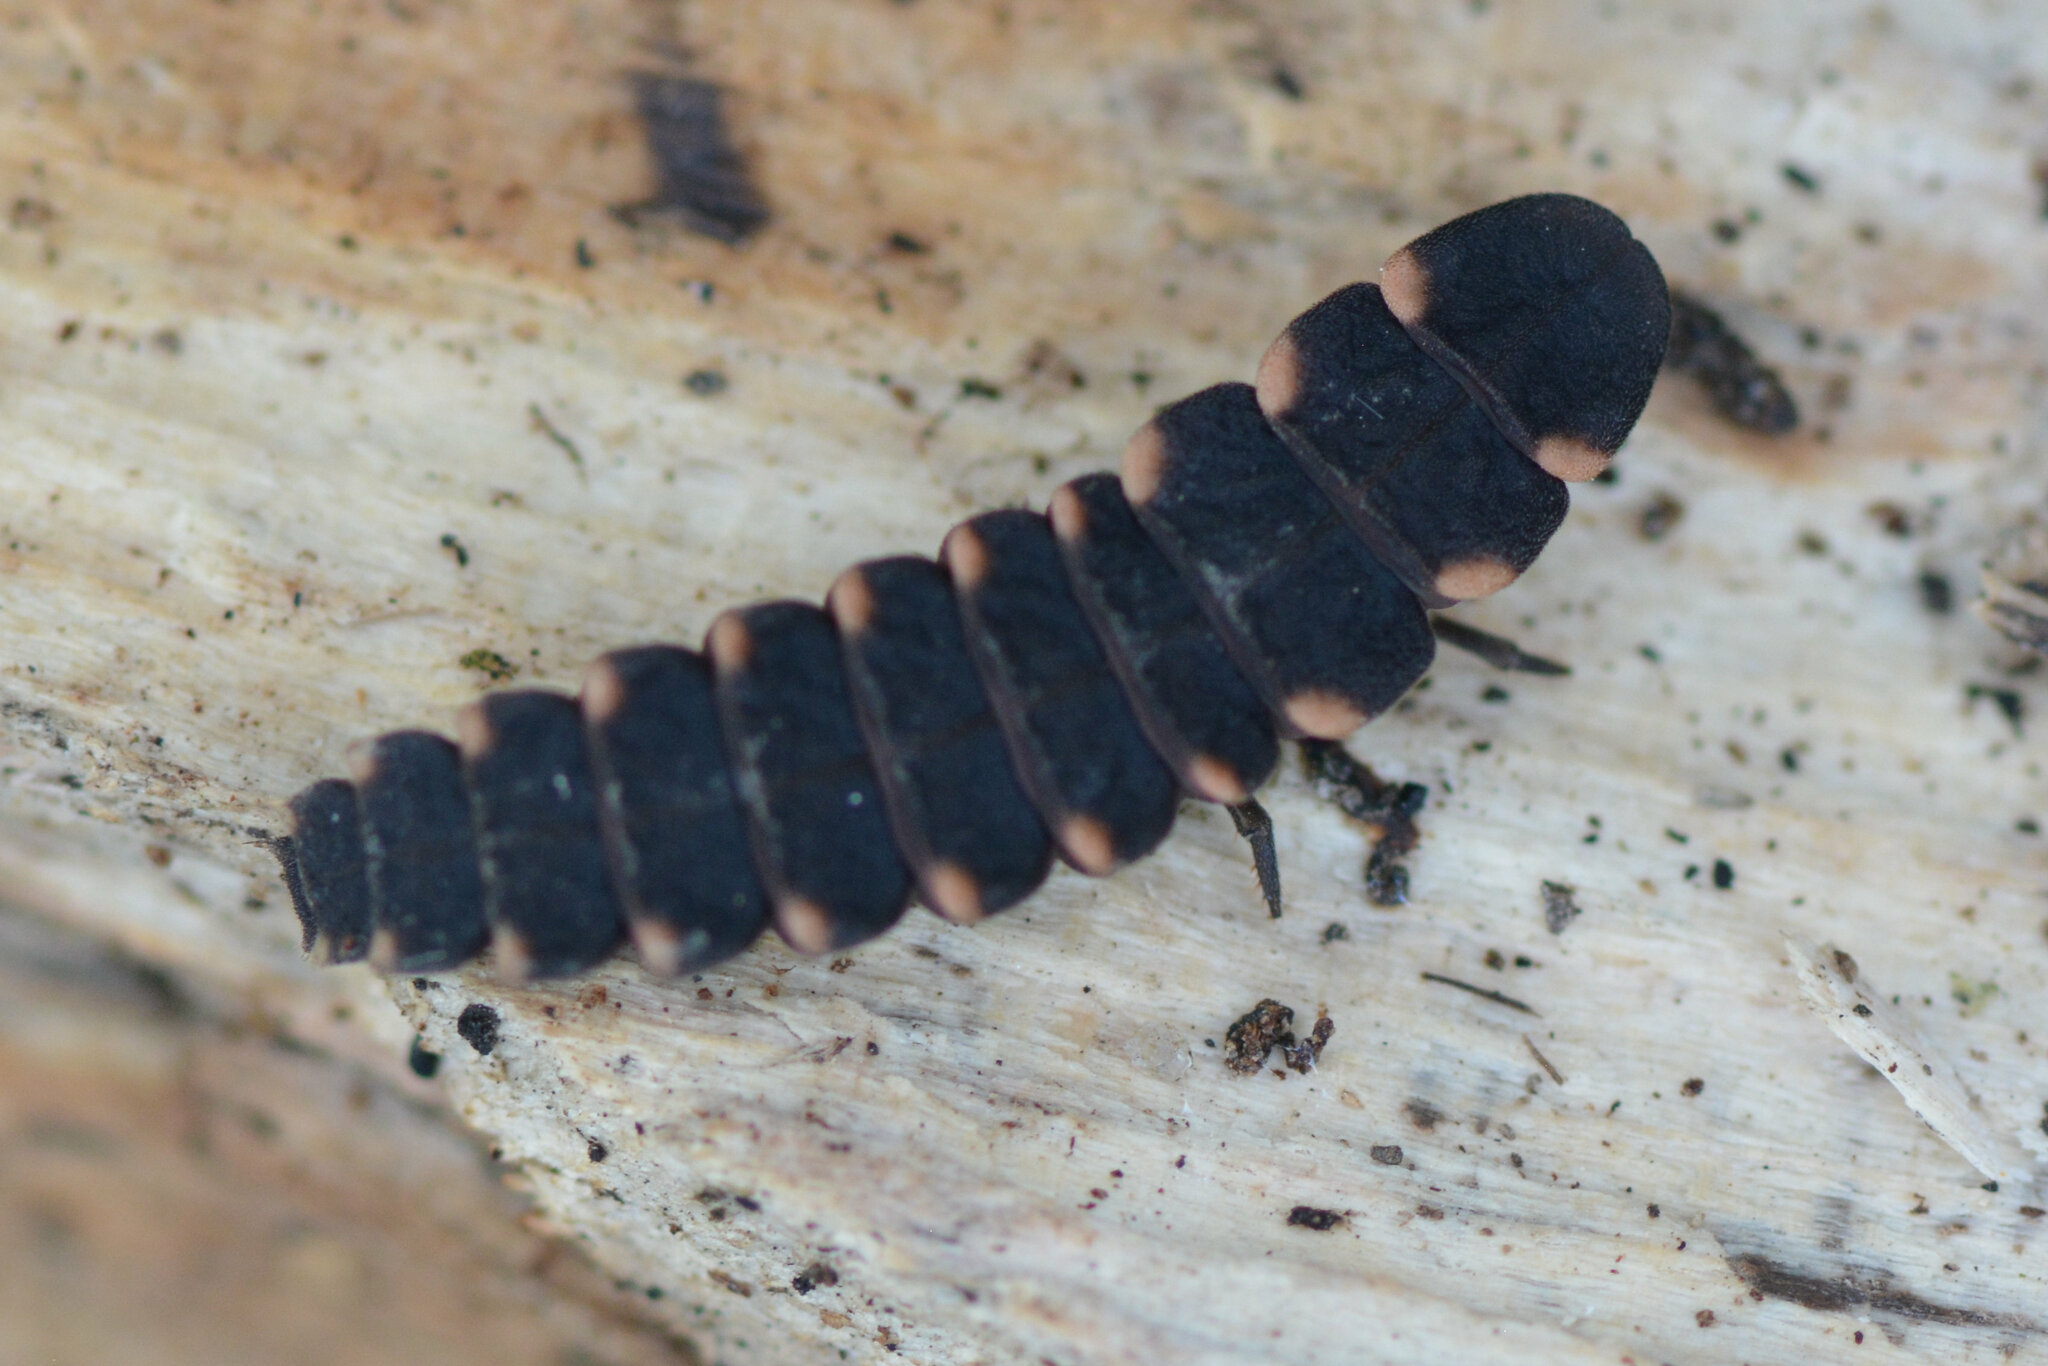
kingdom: Animalia
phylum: Arthropoda
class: Insecta
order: Coleoptera
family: Lampyridae
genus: Lampyris
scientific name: Lampyris noctiluca
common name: Glow-worm
